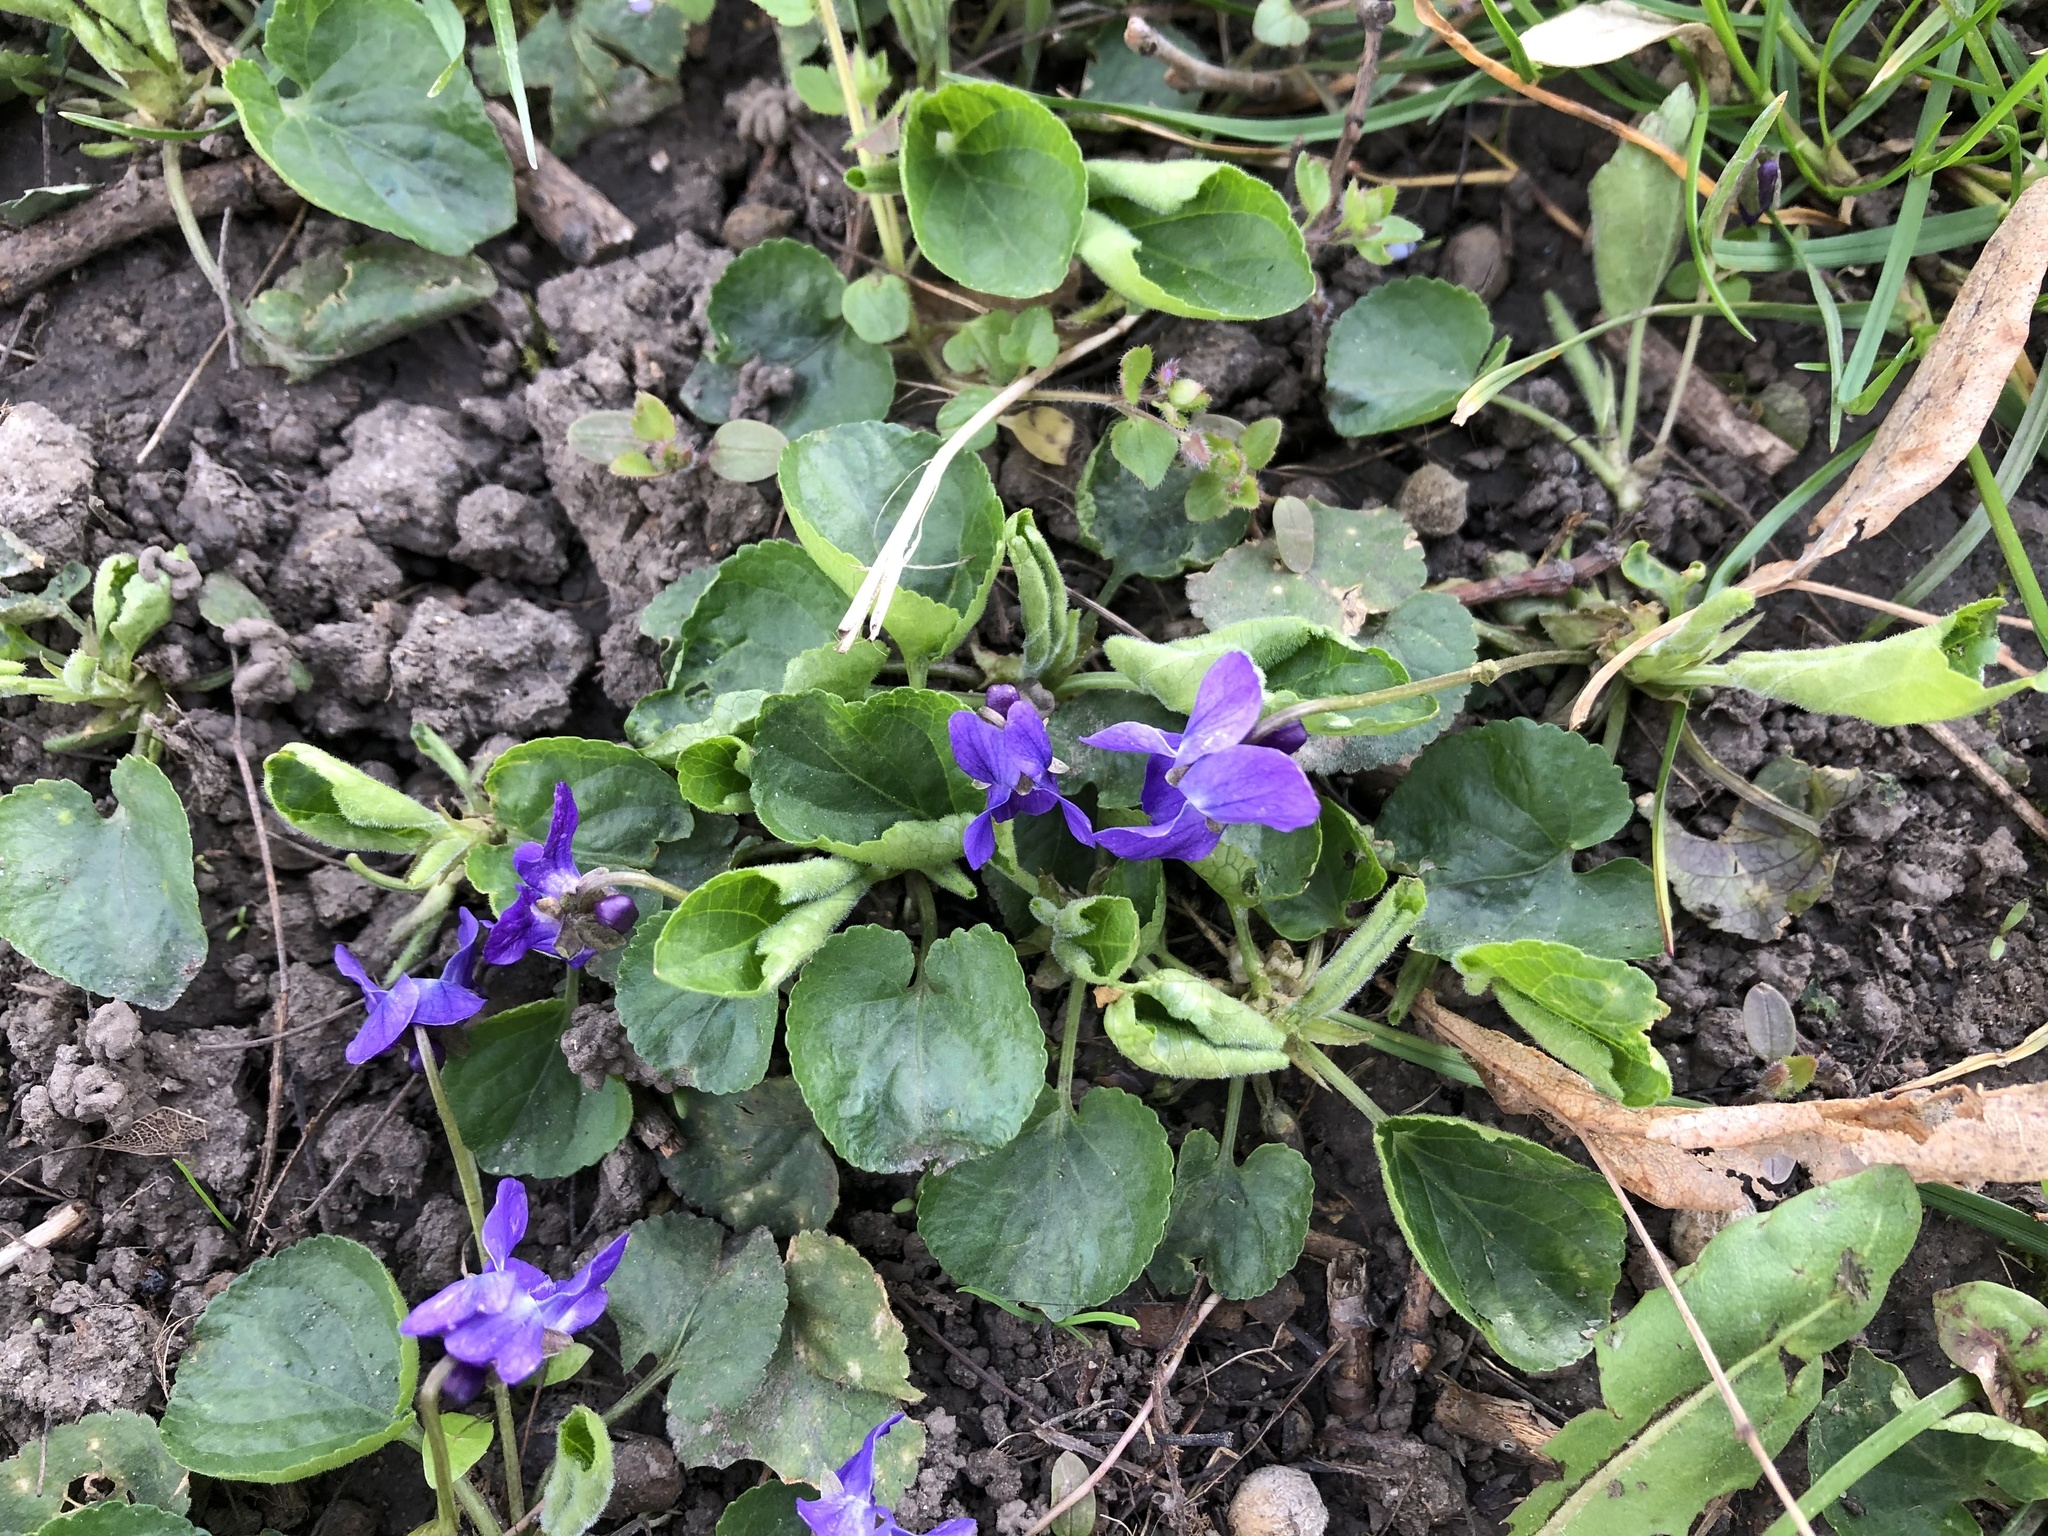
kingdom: Plantae
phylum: Tracheophyta
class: Magnoliopsida
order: Malpighiales
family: Violaceae
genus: Viola
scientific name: Viola odorata
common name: Sweet violet
